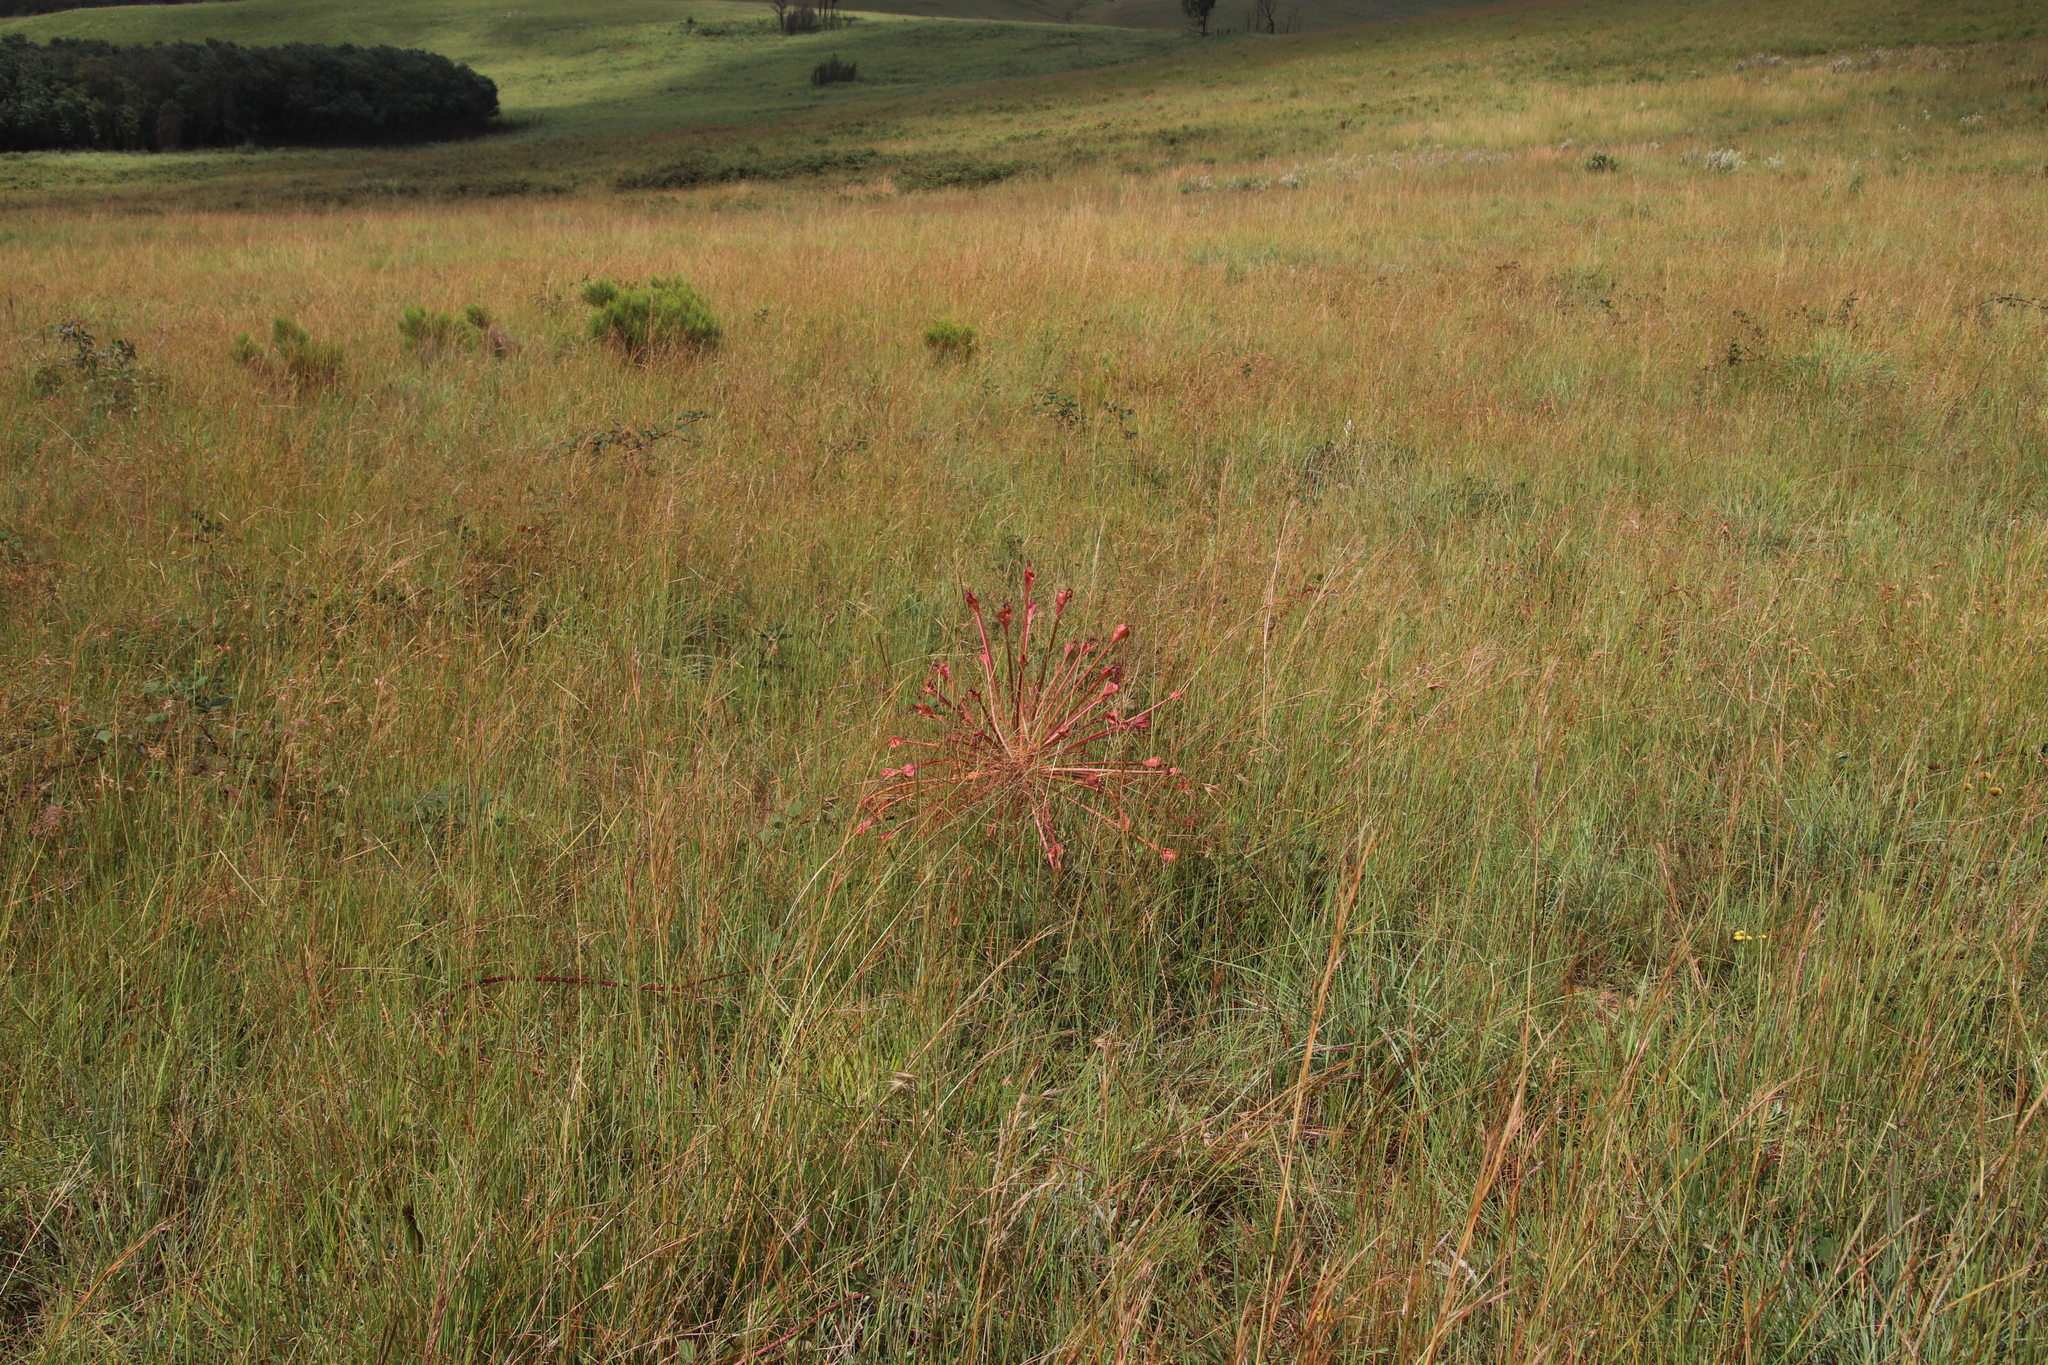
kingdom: Plantae
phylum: Tracheophyta
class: Liliopsida
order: Asparagales
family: Amaryllidaceae
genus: Brunsvigia
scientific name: Brunsvigia radulosa
